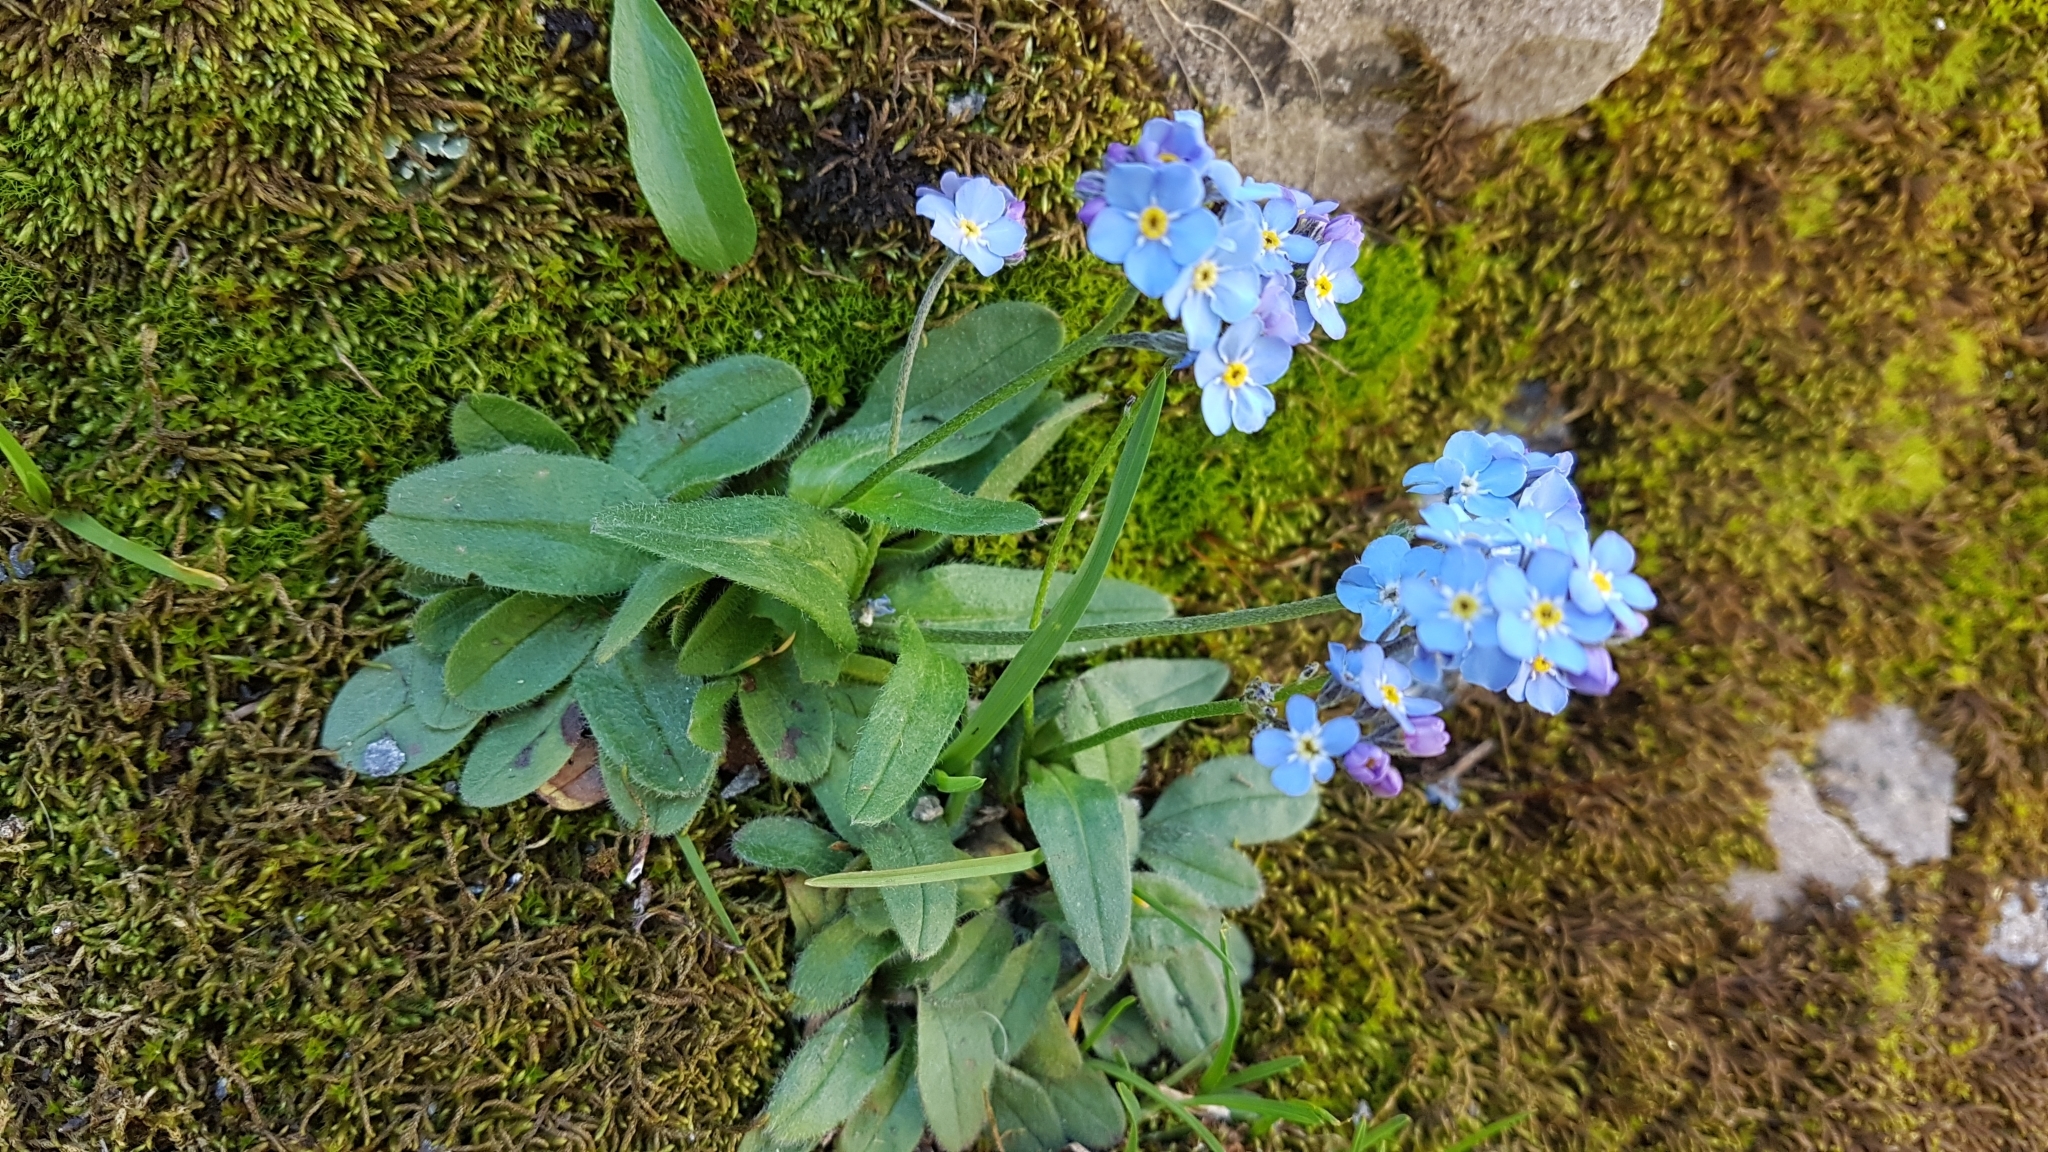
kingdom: Plantae
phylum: Tracheophyta
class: Magnoliopsida
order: Boraginales
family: Boraginaceae
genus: Myosotis
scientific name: Myosotis alpestris
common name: Alpine forget-me-not
